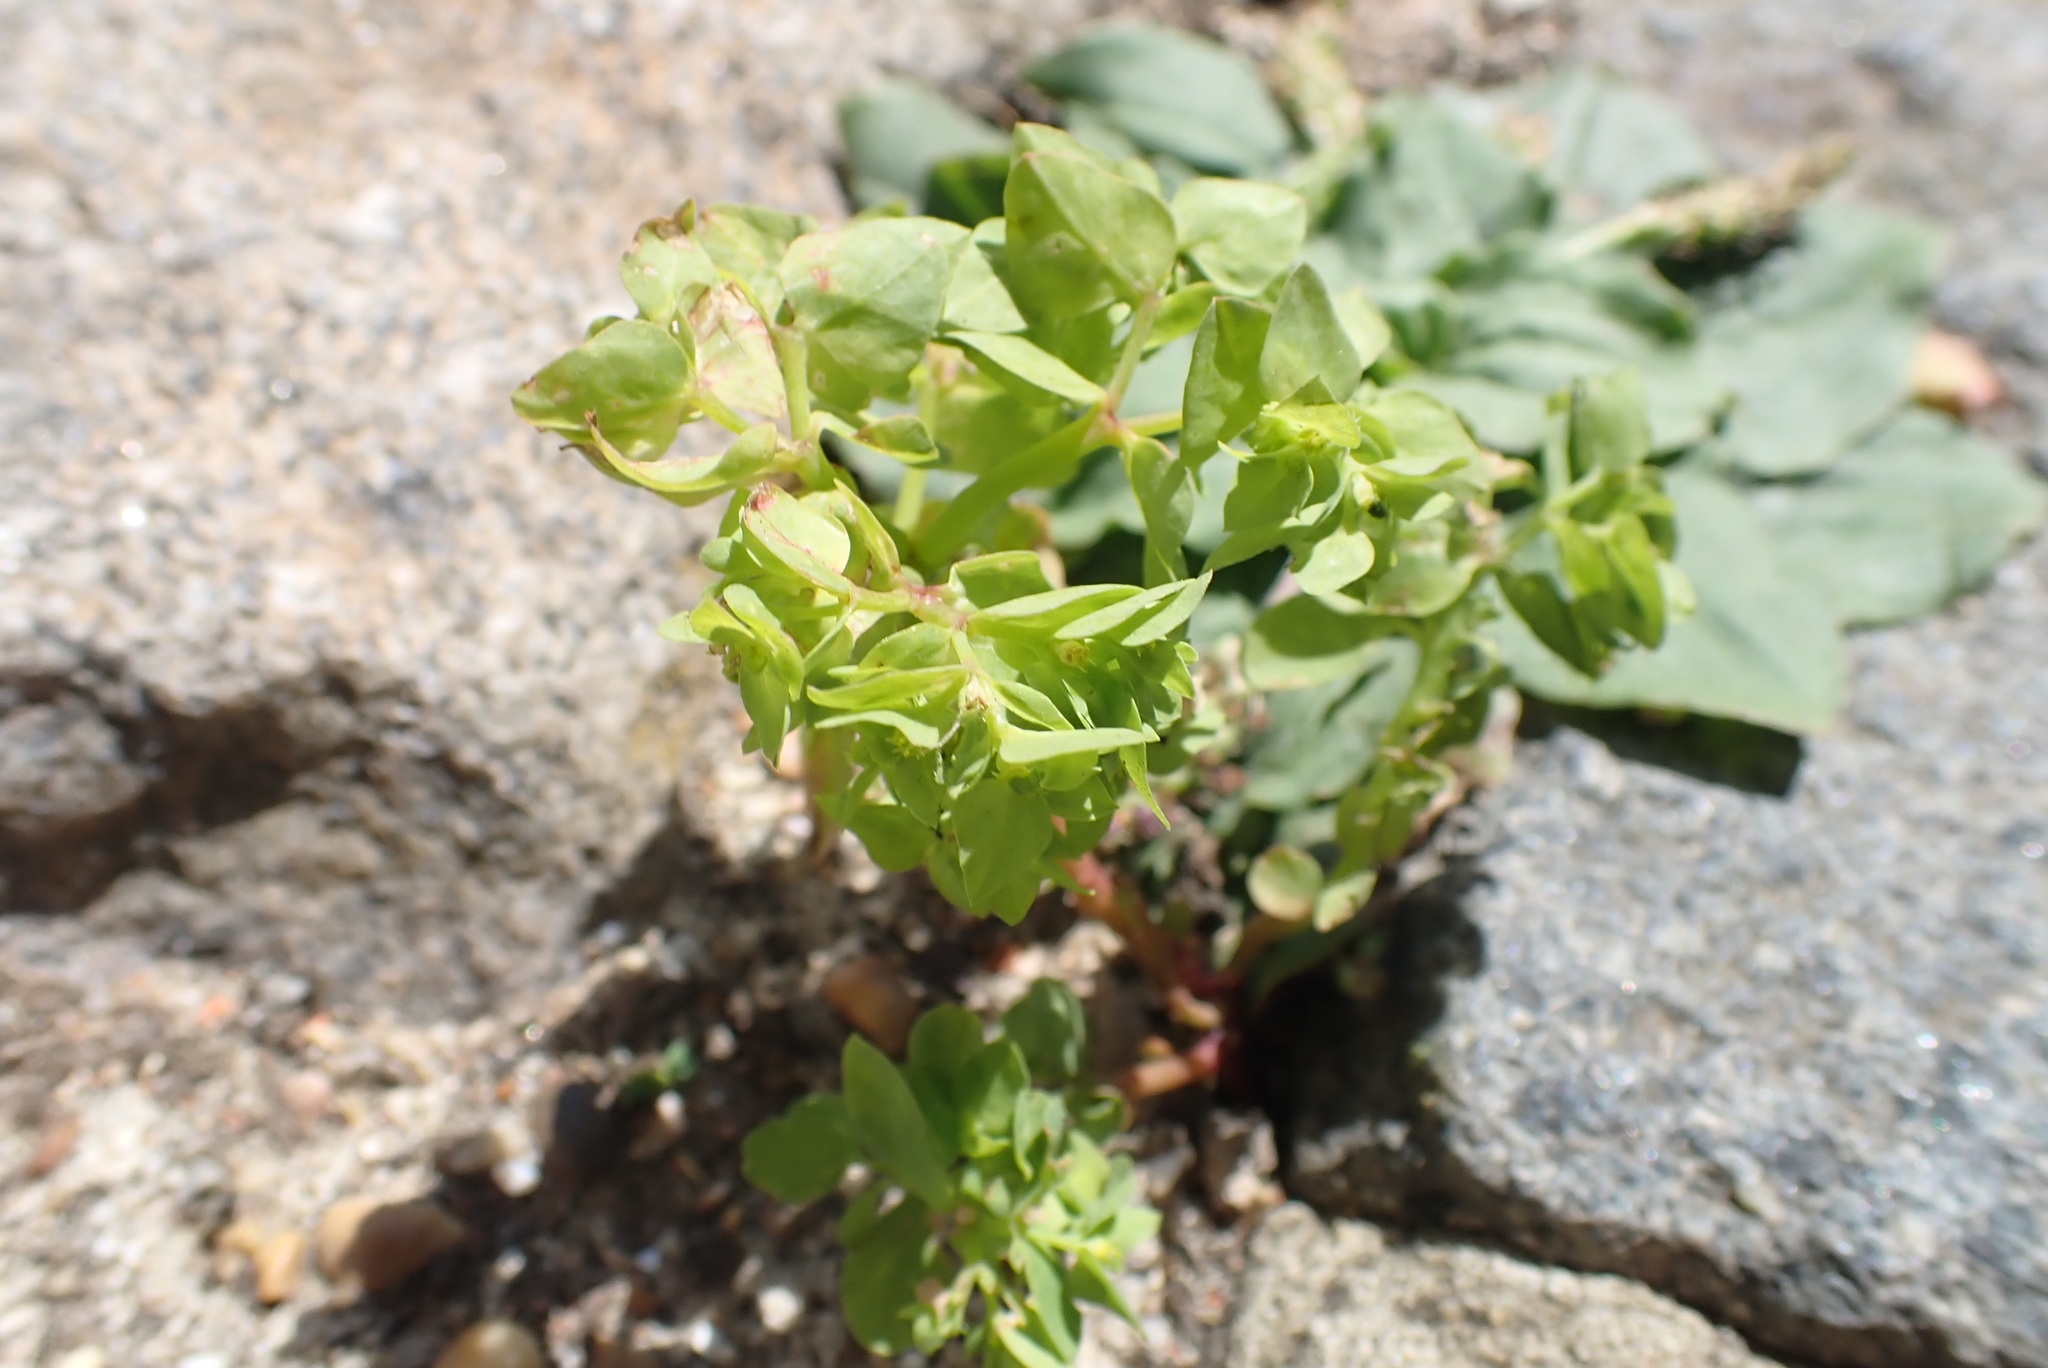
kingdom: Plantae
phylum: Tracheophyta
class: Magnoliopsida
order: Malpighiales
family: Euphorbiaceae
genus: Euphorbia
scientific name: Euphorbia peplus
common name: Petty spurge
